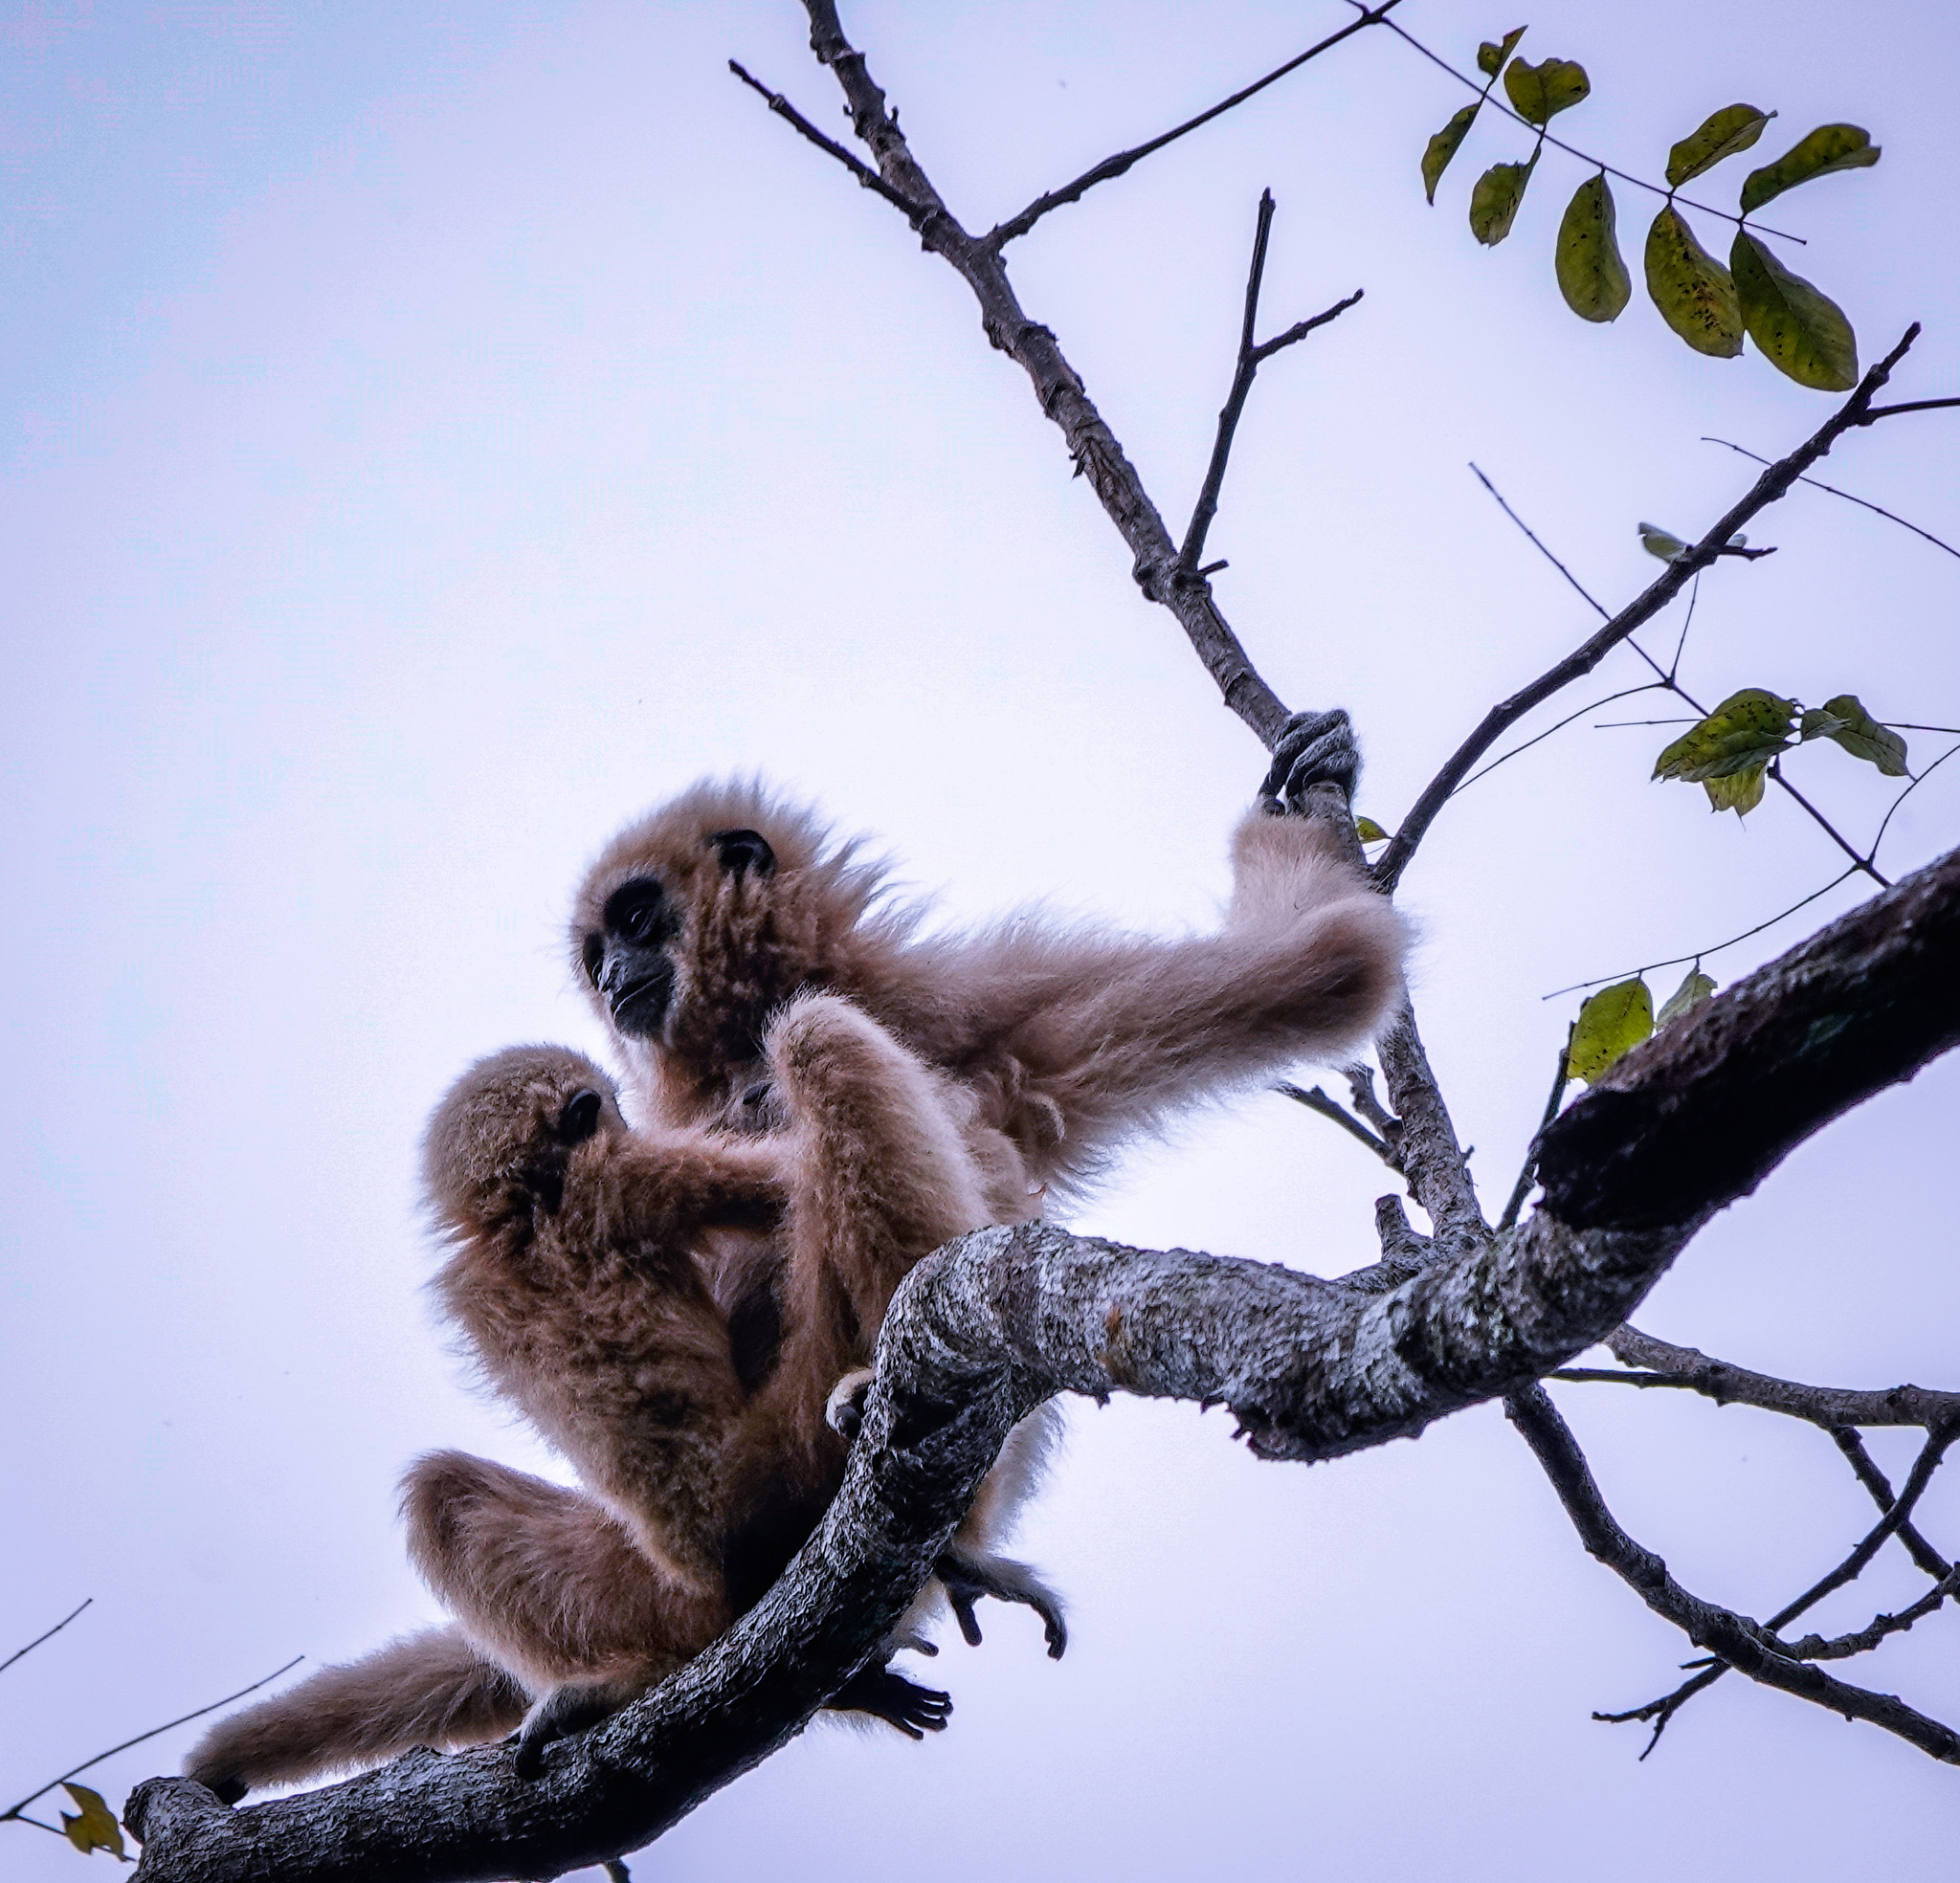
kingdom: Animalia
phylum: Chordata
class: Mammalia
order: Primates
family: Hylobatidae
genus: Hylobates
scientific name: Hylobates lar
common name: Lar gibbon
